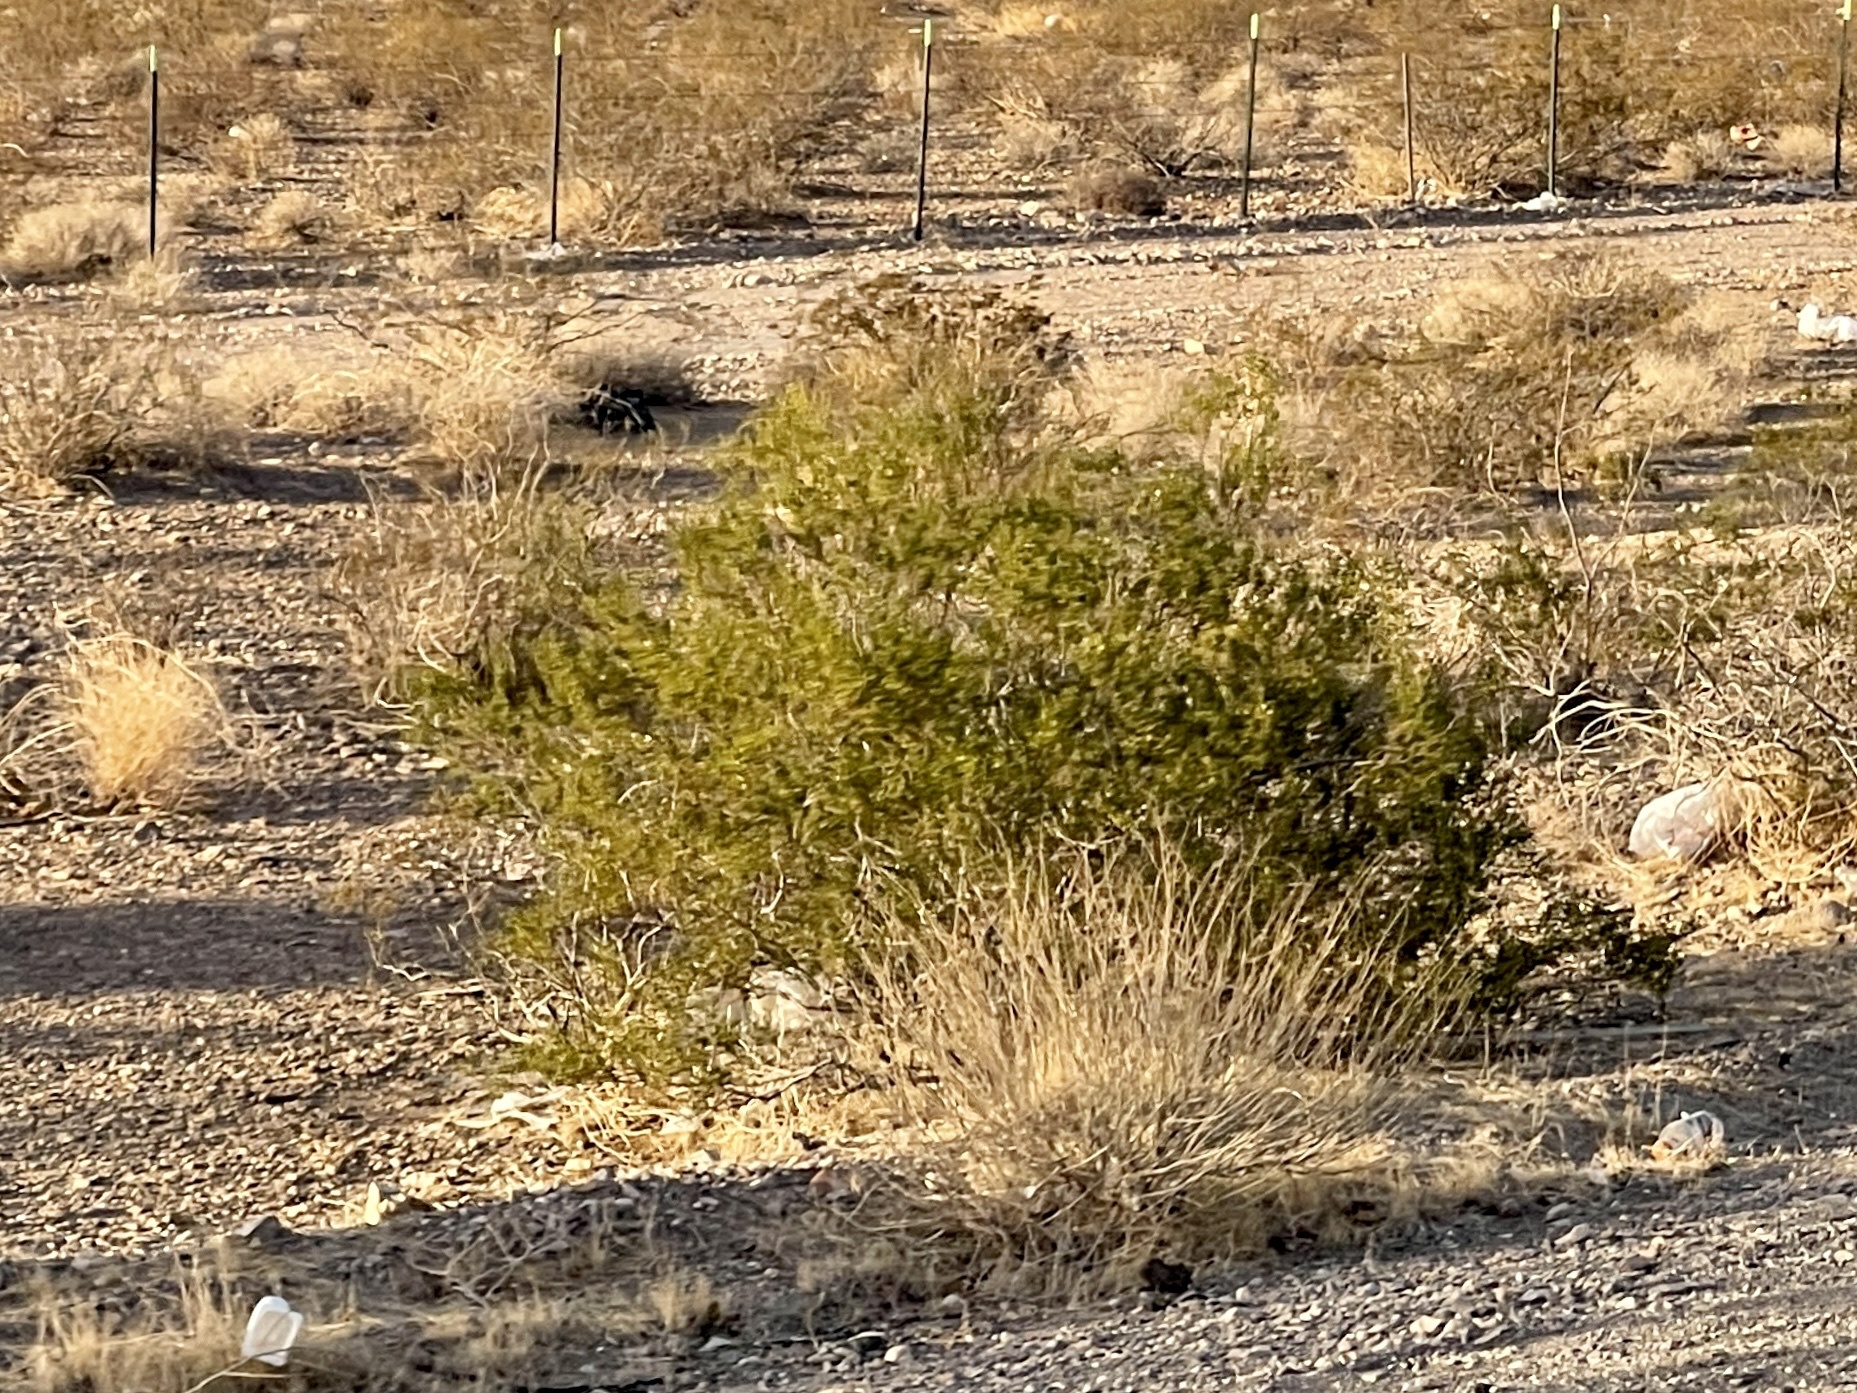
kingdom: Plantae
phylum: Tracheophyta
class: Magnoliopsida
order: Zygophyllales
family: Zygophyllaceae
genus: Larrea
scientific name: Larrea tridentata
